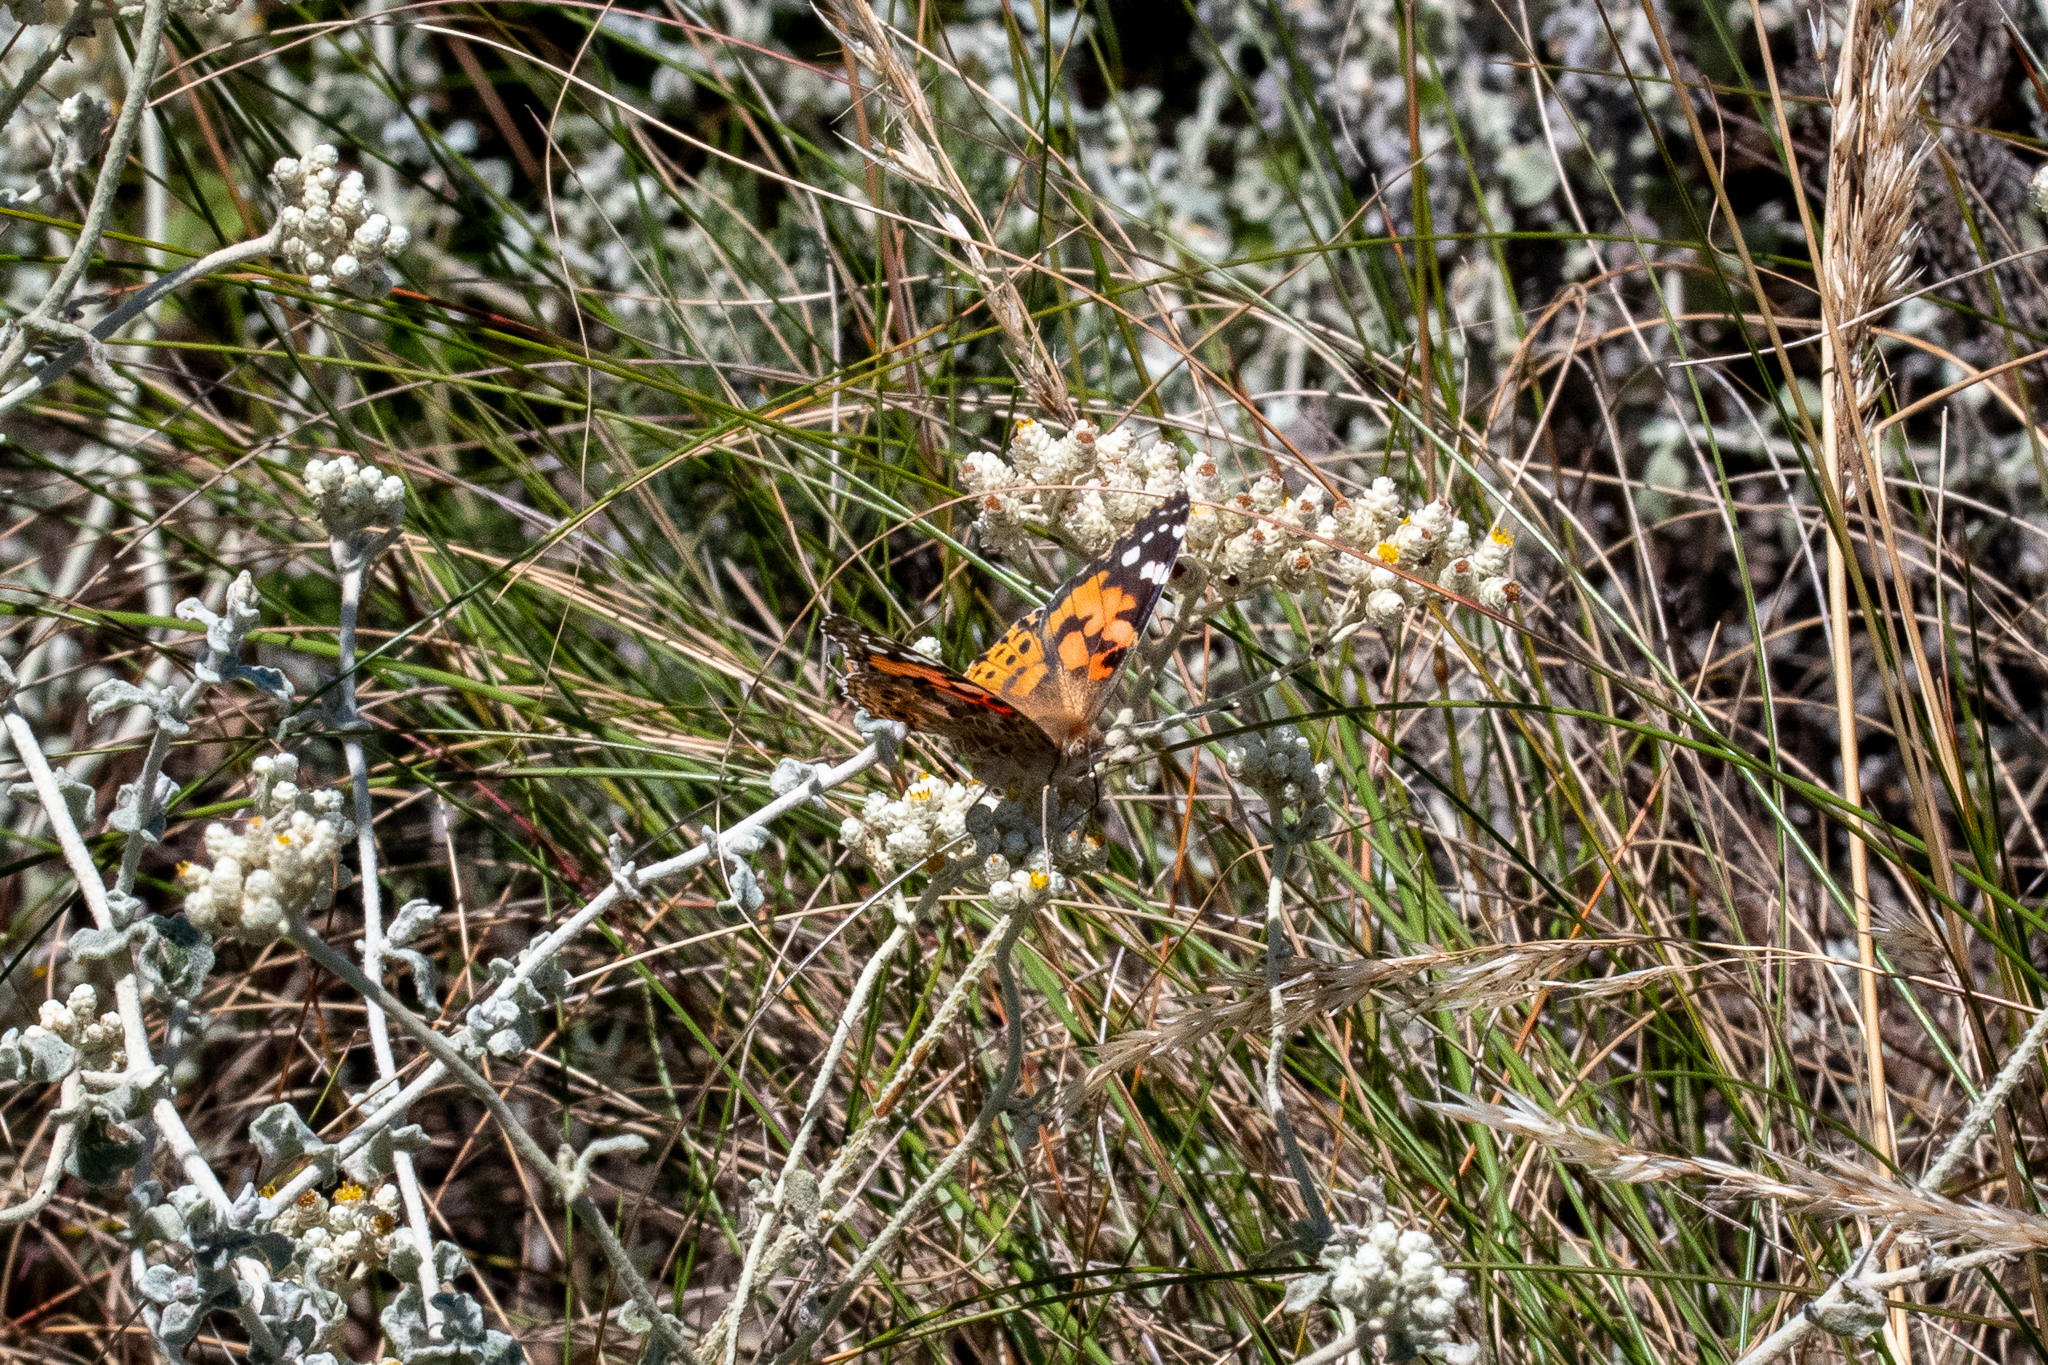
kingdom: Animalia
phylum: Arthropoda
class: Insecta
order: Lepidoptera
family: Nymphalidae
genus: Vanessa
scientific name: Vanessa cardui
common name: Painted lady
